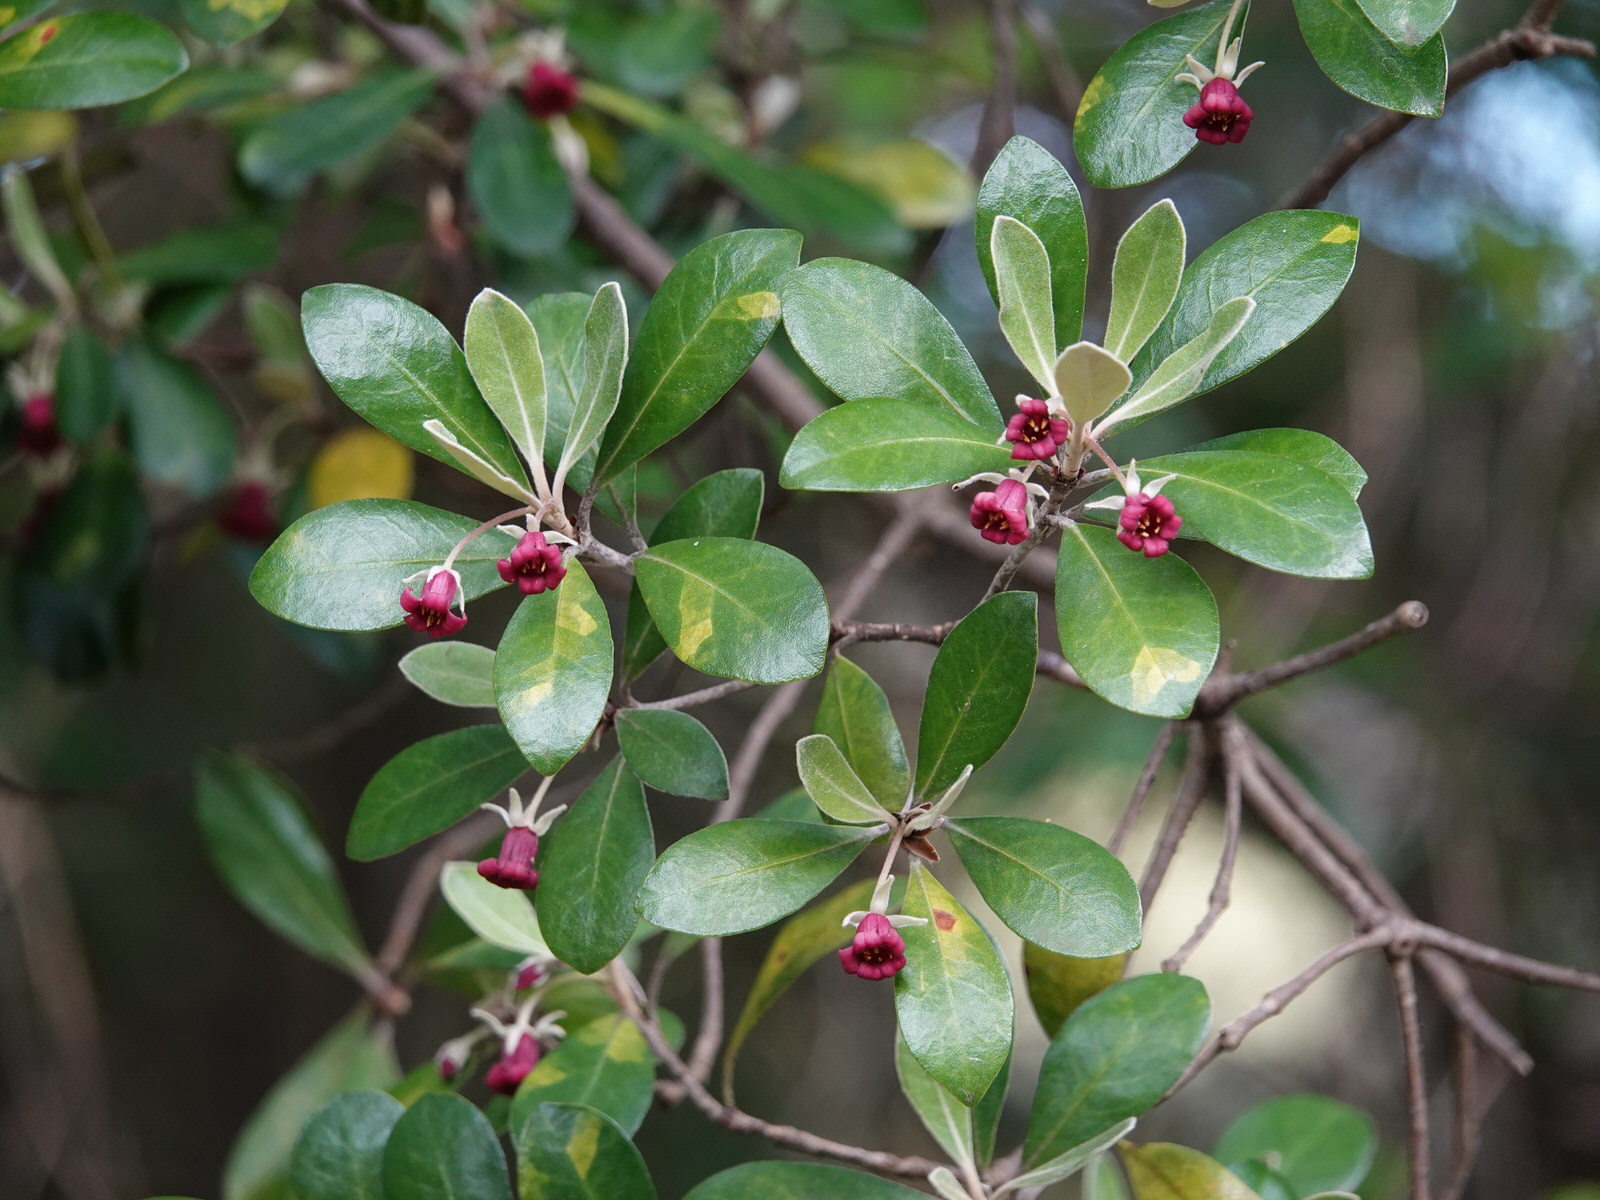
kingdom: Plantae
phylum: Tracheophyta
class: Magnoliopsida
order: Apiales
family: Pittosporaceae
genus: Pittosporum
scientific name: Pittosporum crassifolium
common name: Karo
